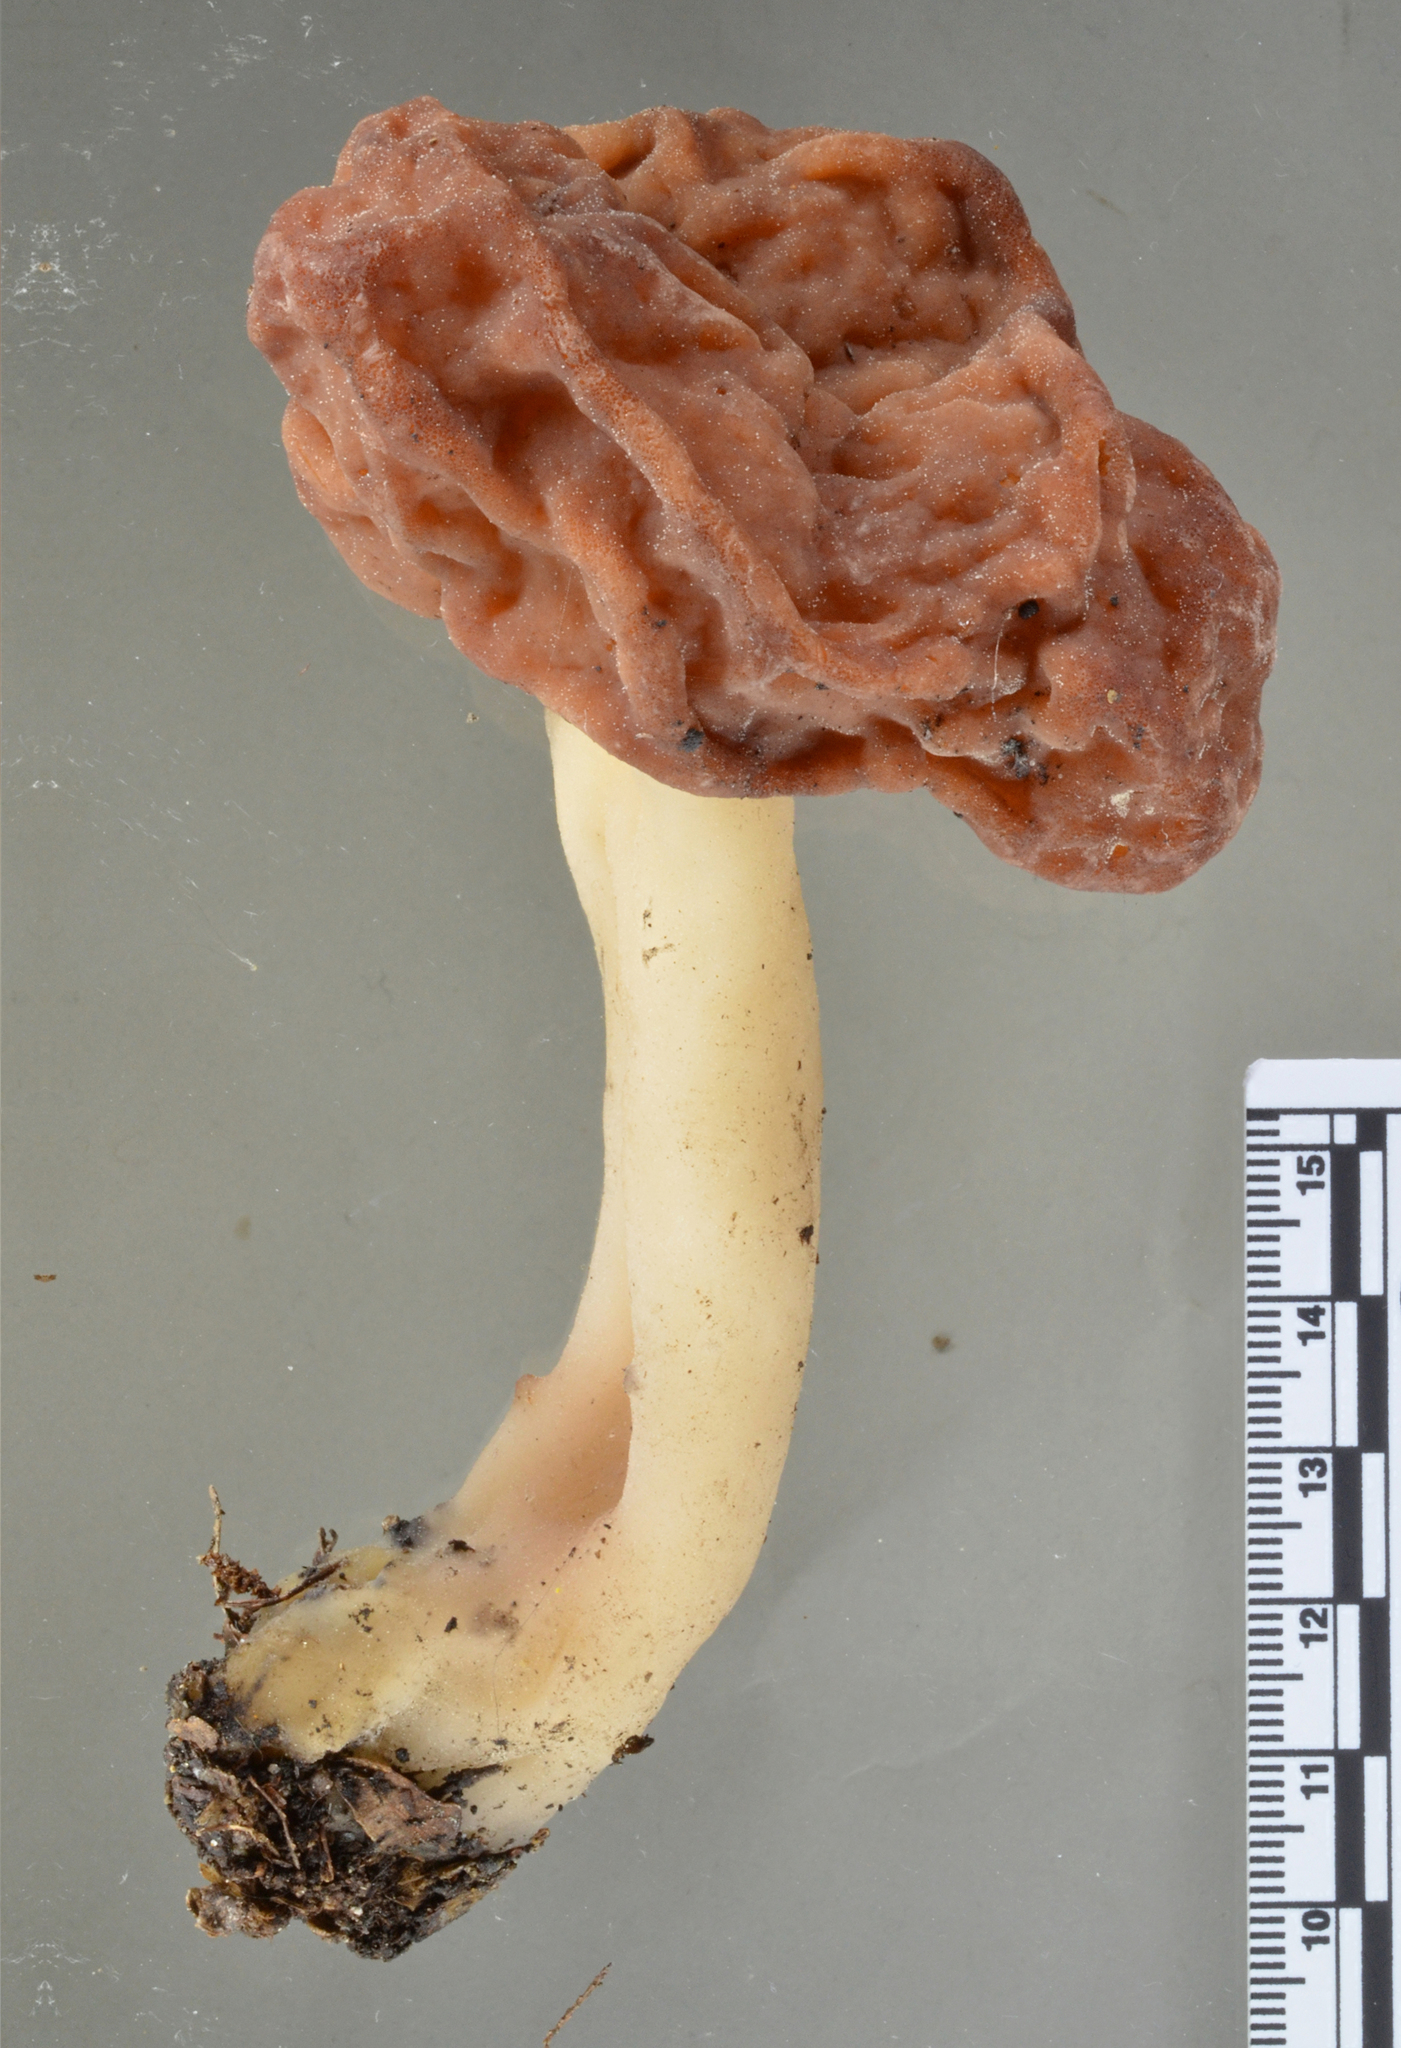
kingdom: Fungi
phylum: Ascomycota
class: Pezizomycetes
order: Pezizales
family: Discinaceae
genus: Gyromitra
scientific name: Gyromitra tasmanica
